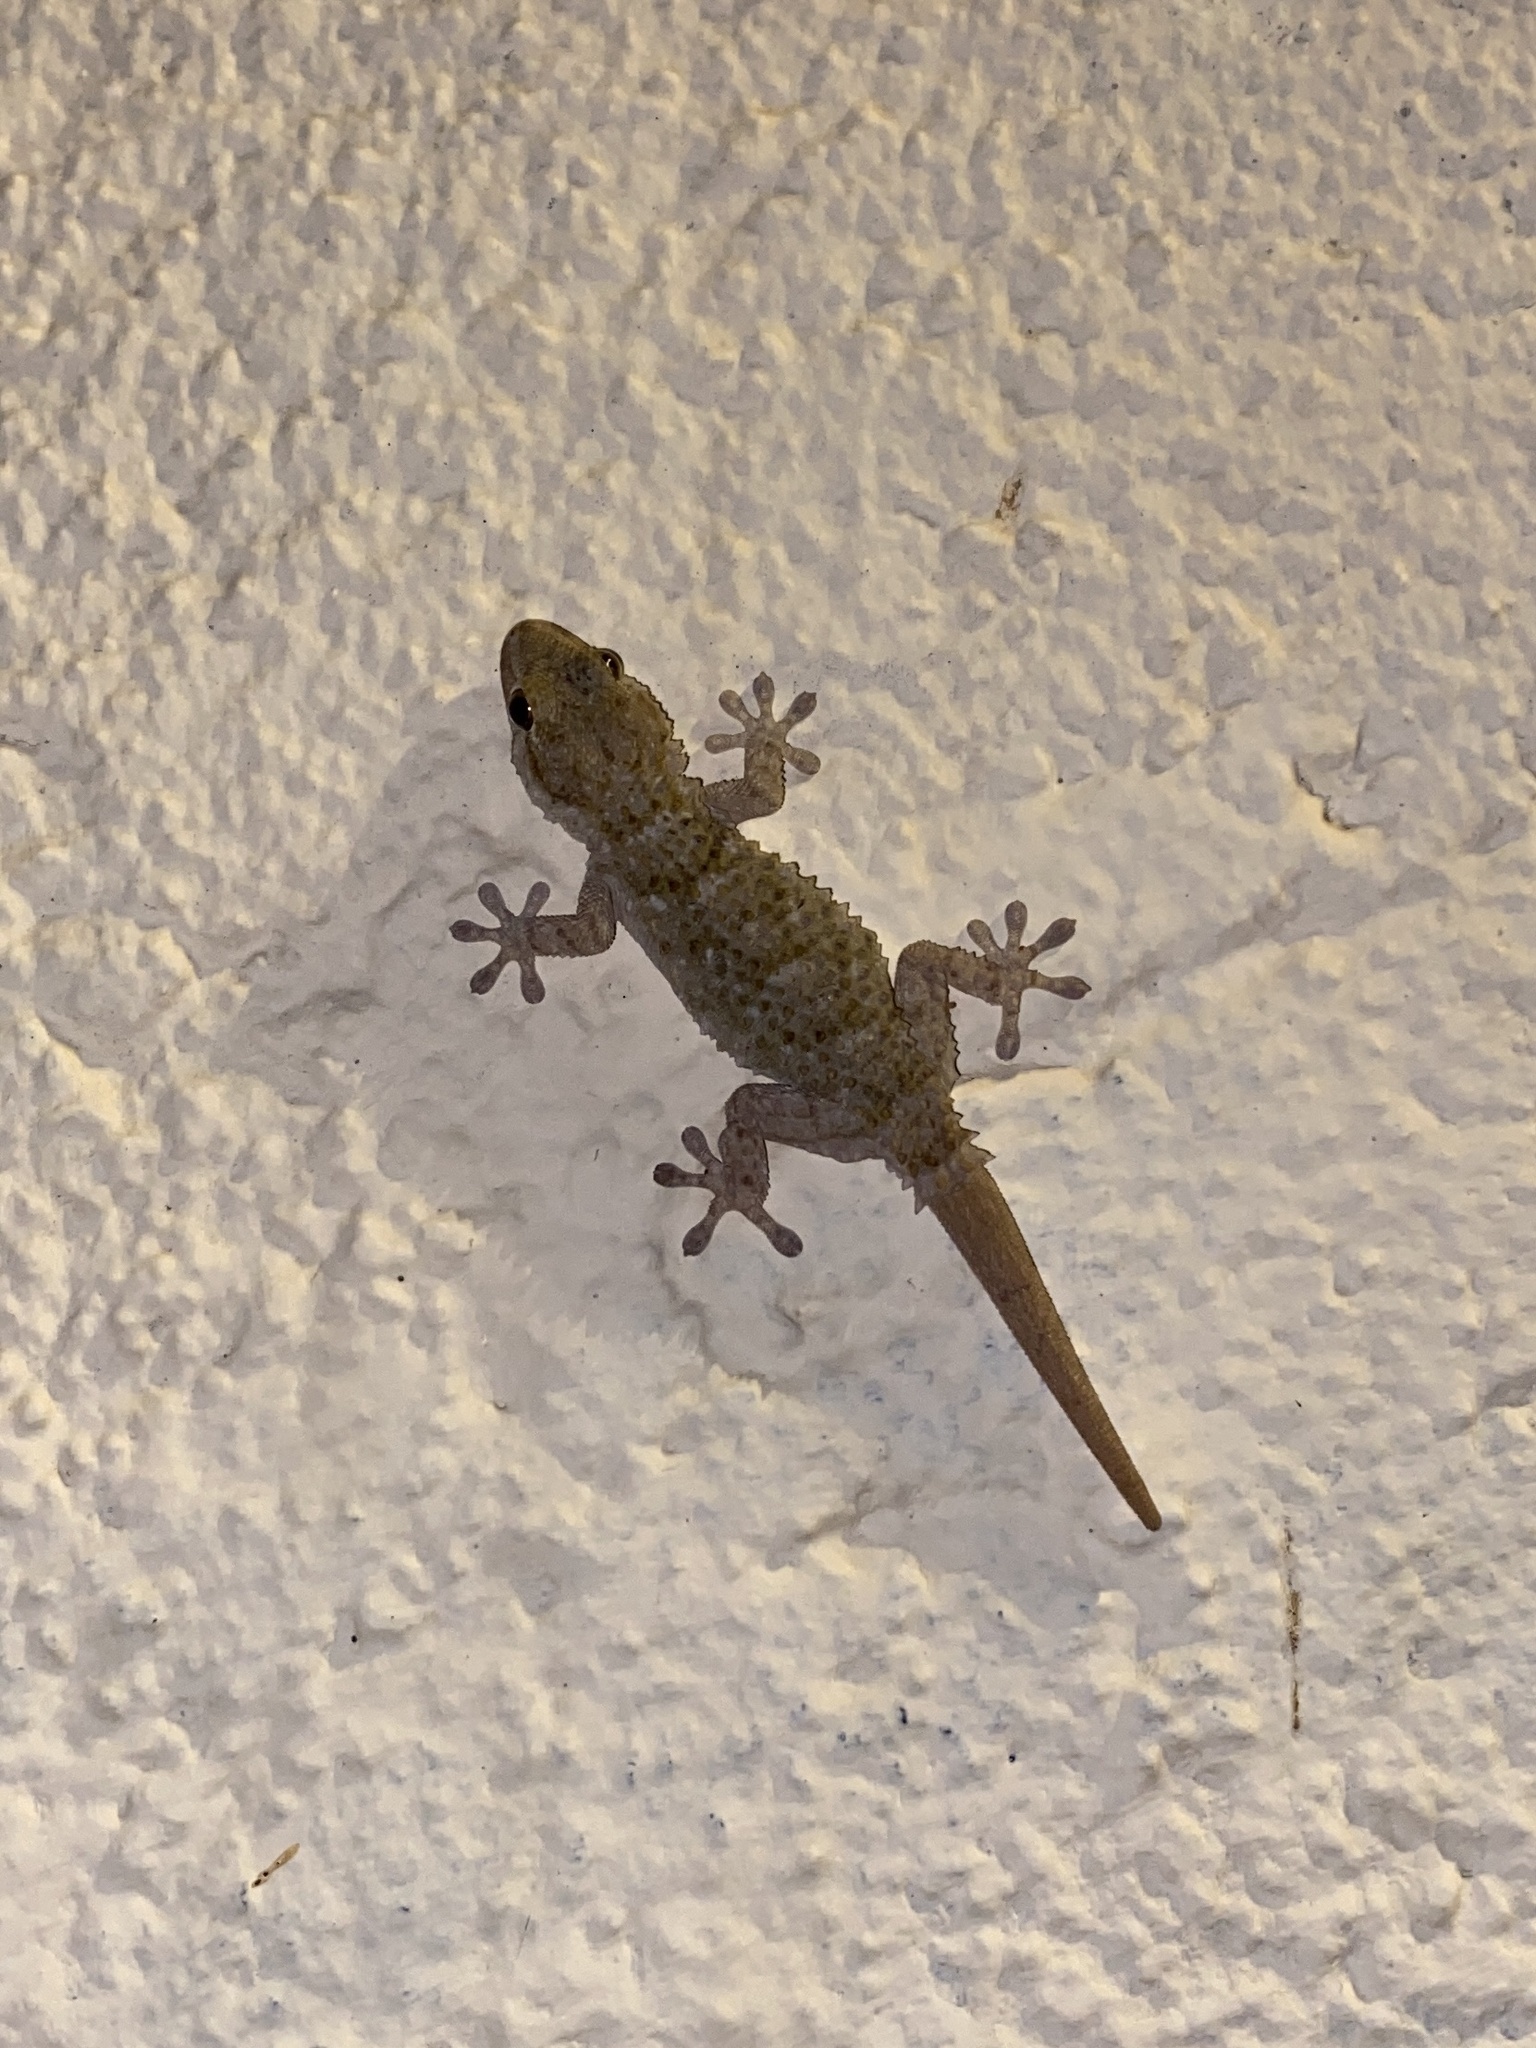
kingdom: Animalia
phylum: Chordata
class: Squamata
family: Phyllodactylidae
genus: Tarentola
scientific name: Tarentola mauritanica
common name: Moorish gecko
